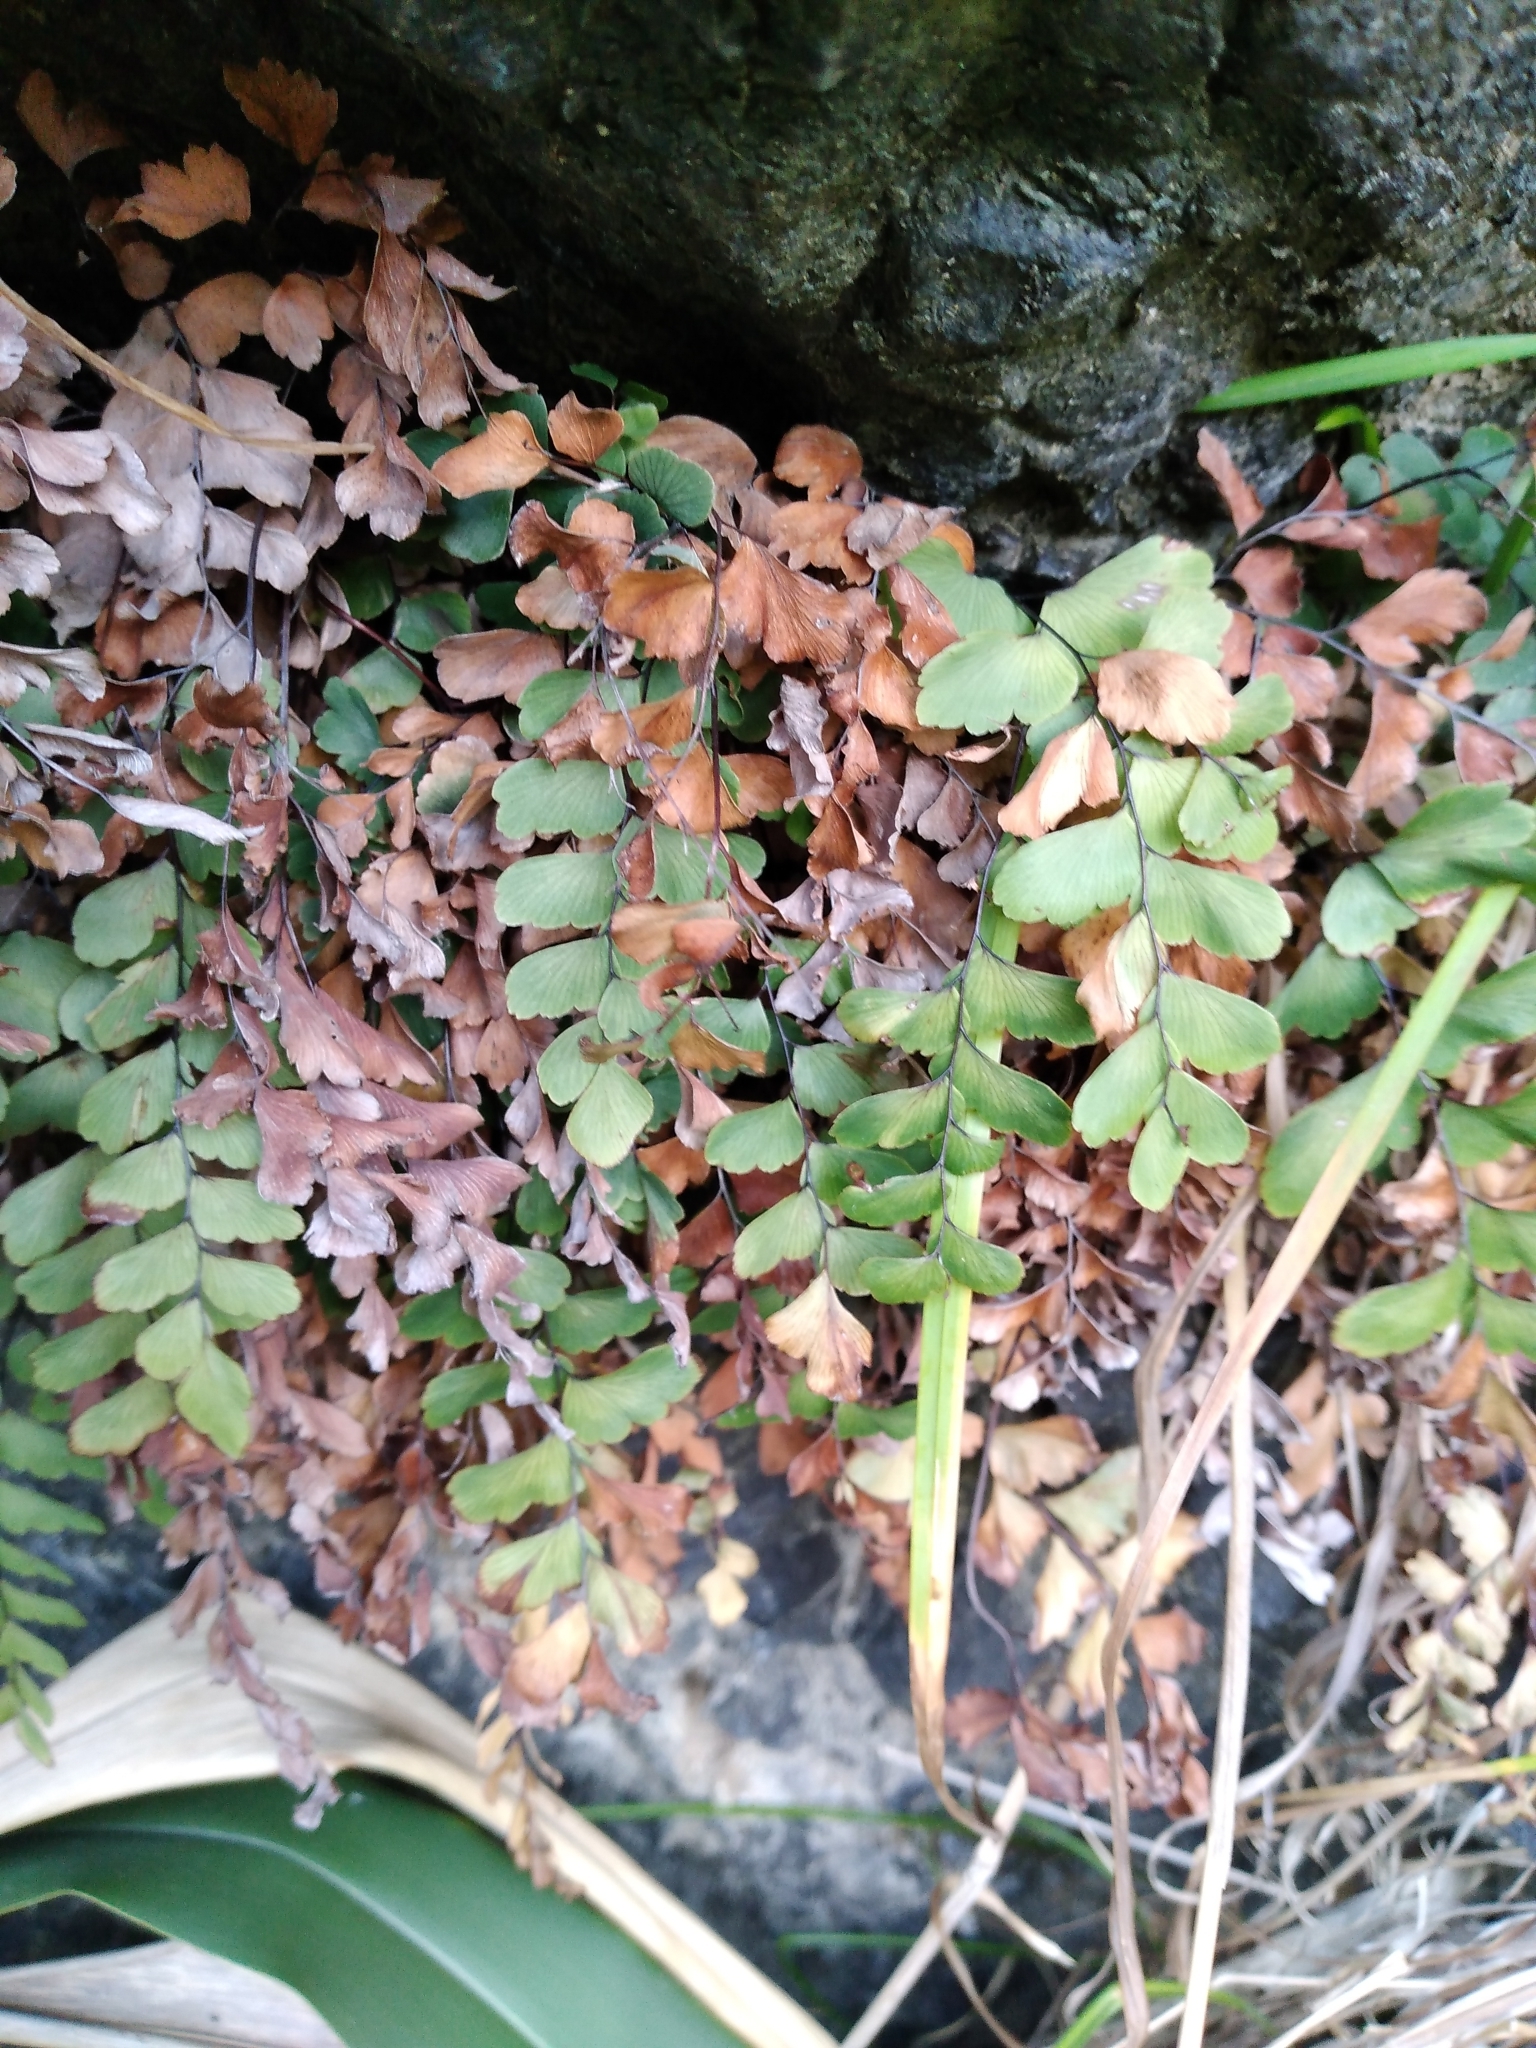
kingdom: Plantae
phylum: Tracheophyta
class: Polypodiopsida
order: Polypodiales
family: Pteridaceae
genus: Adiantum
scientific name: Adiantum cunninghamii
